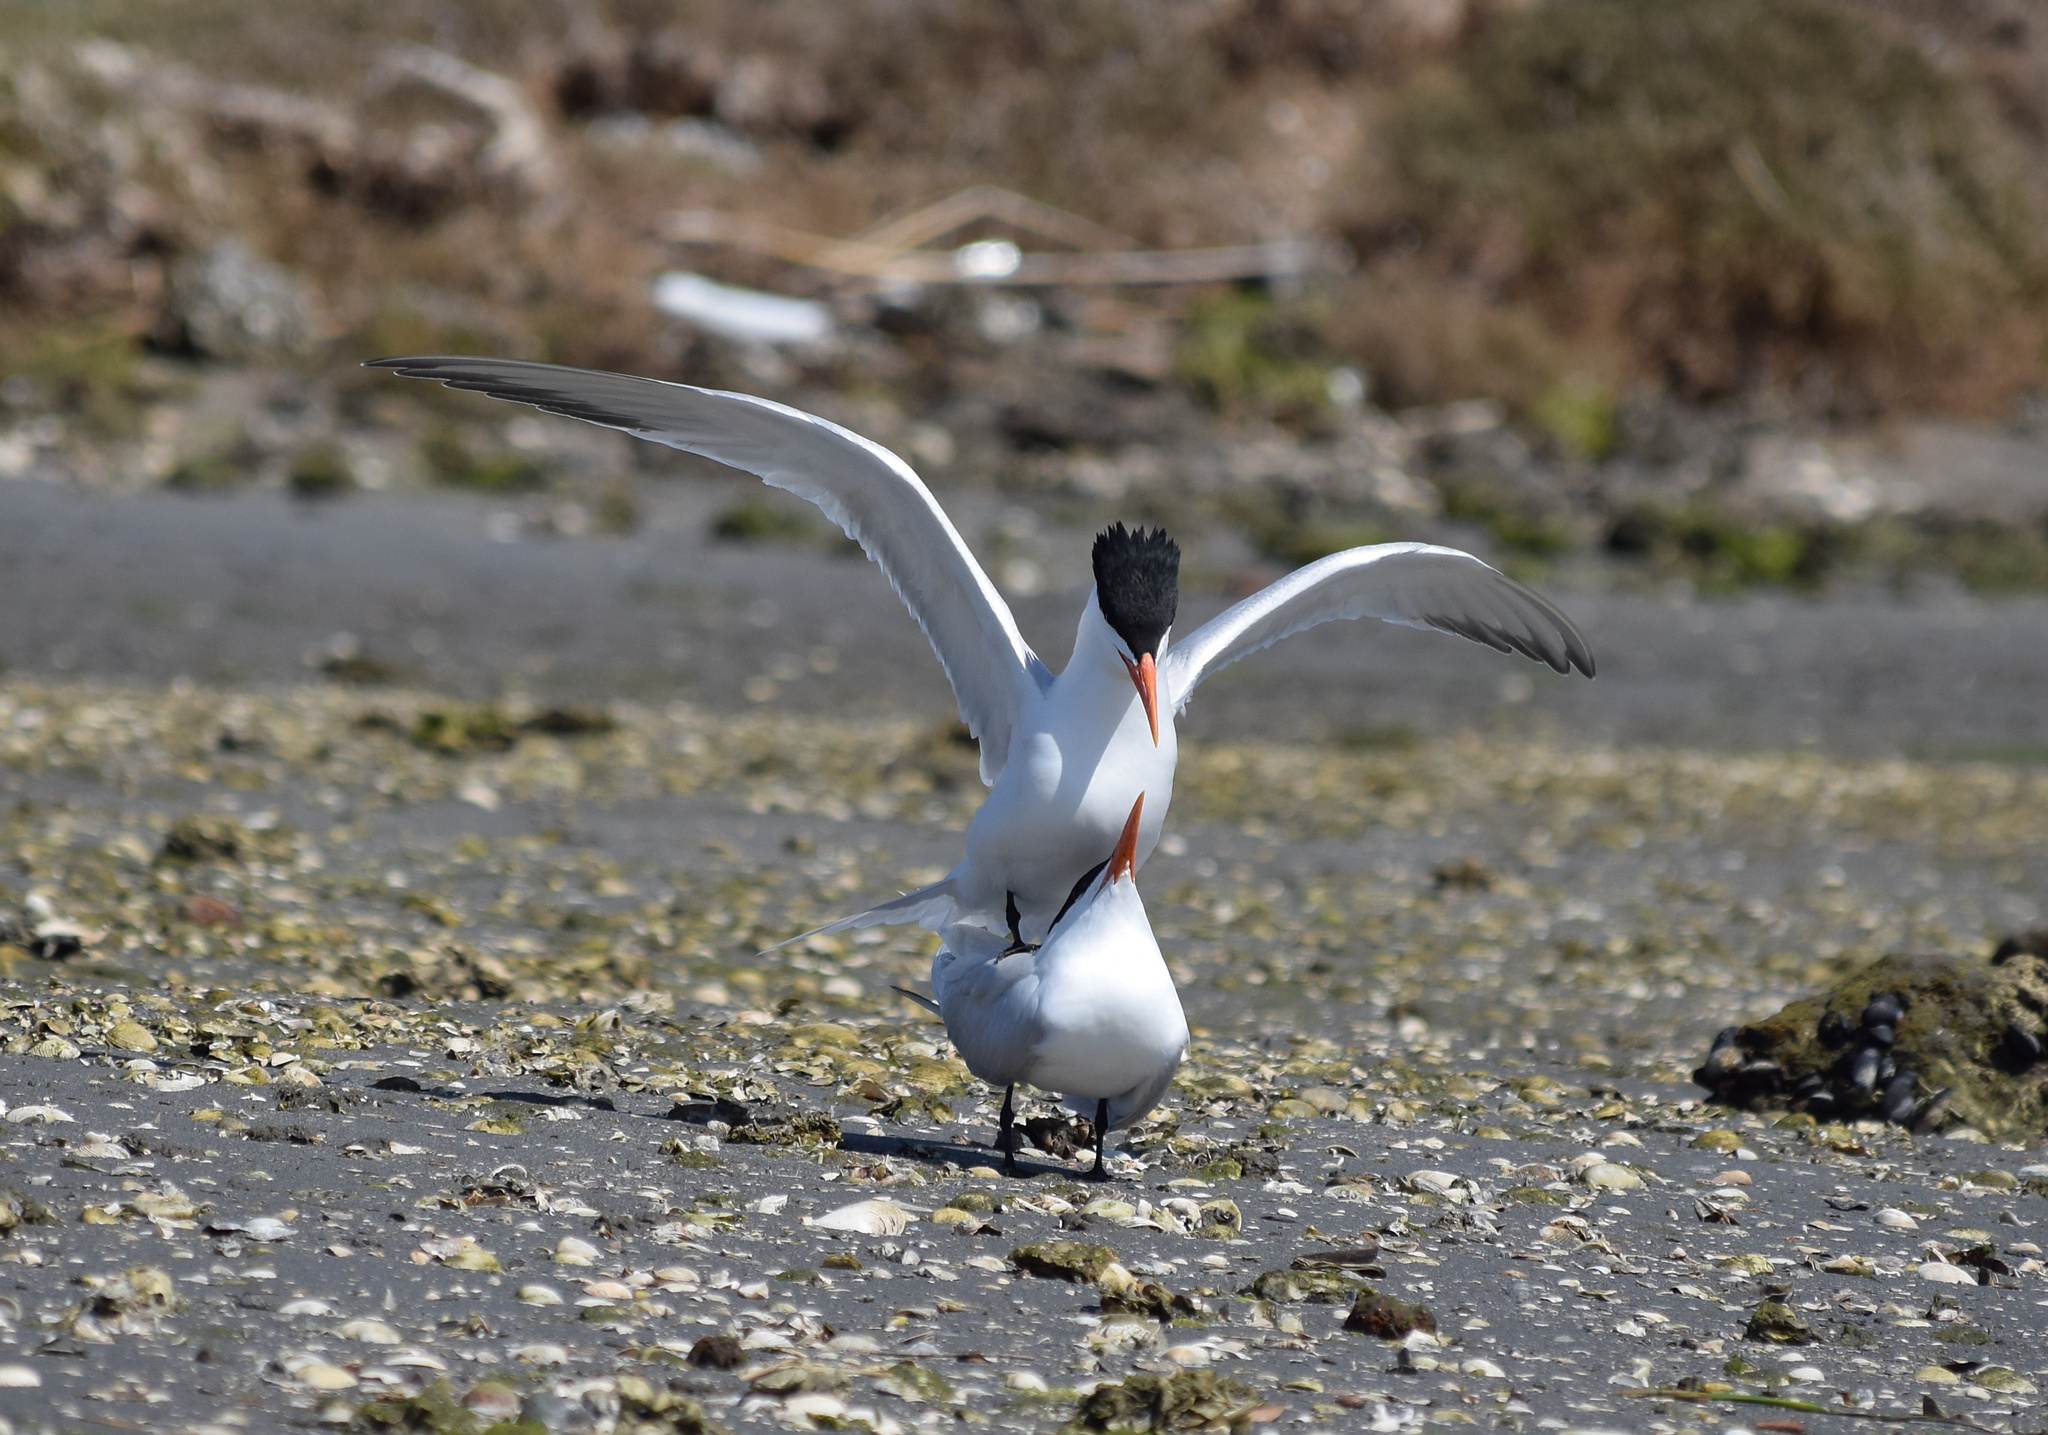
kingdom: Animalia
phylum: Chordata
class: Aves
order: Charadriiformes
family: Laridae
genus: Thalasseus
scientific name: Thalasseus elegans
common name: Elegant tern
